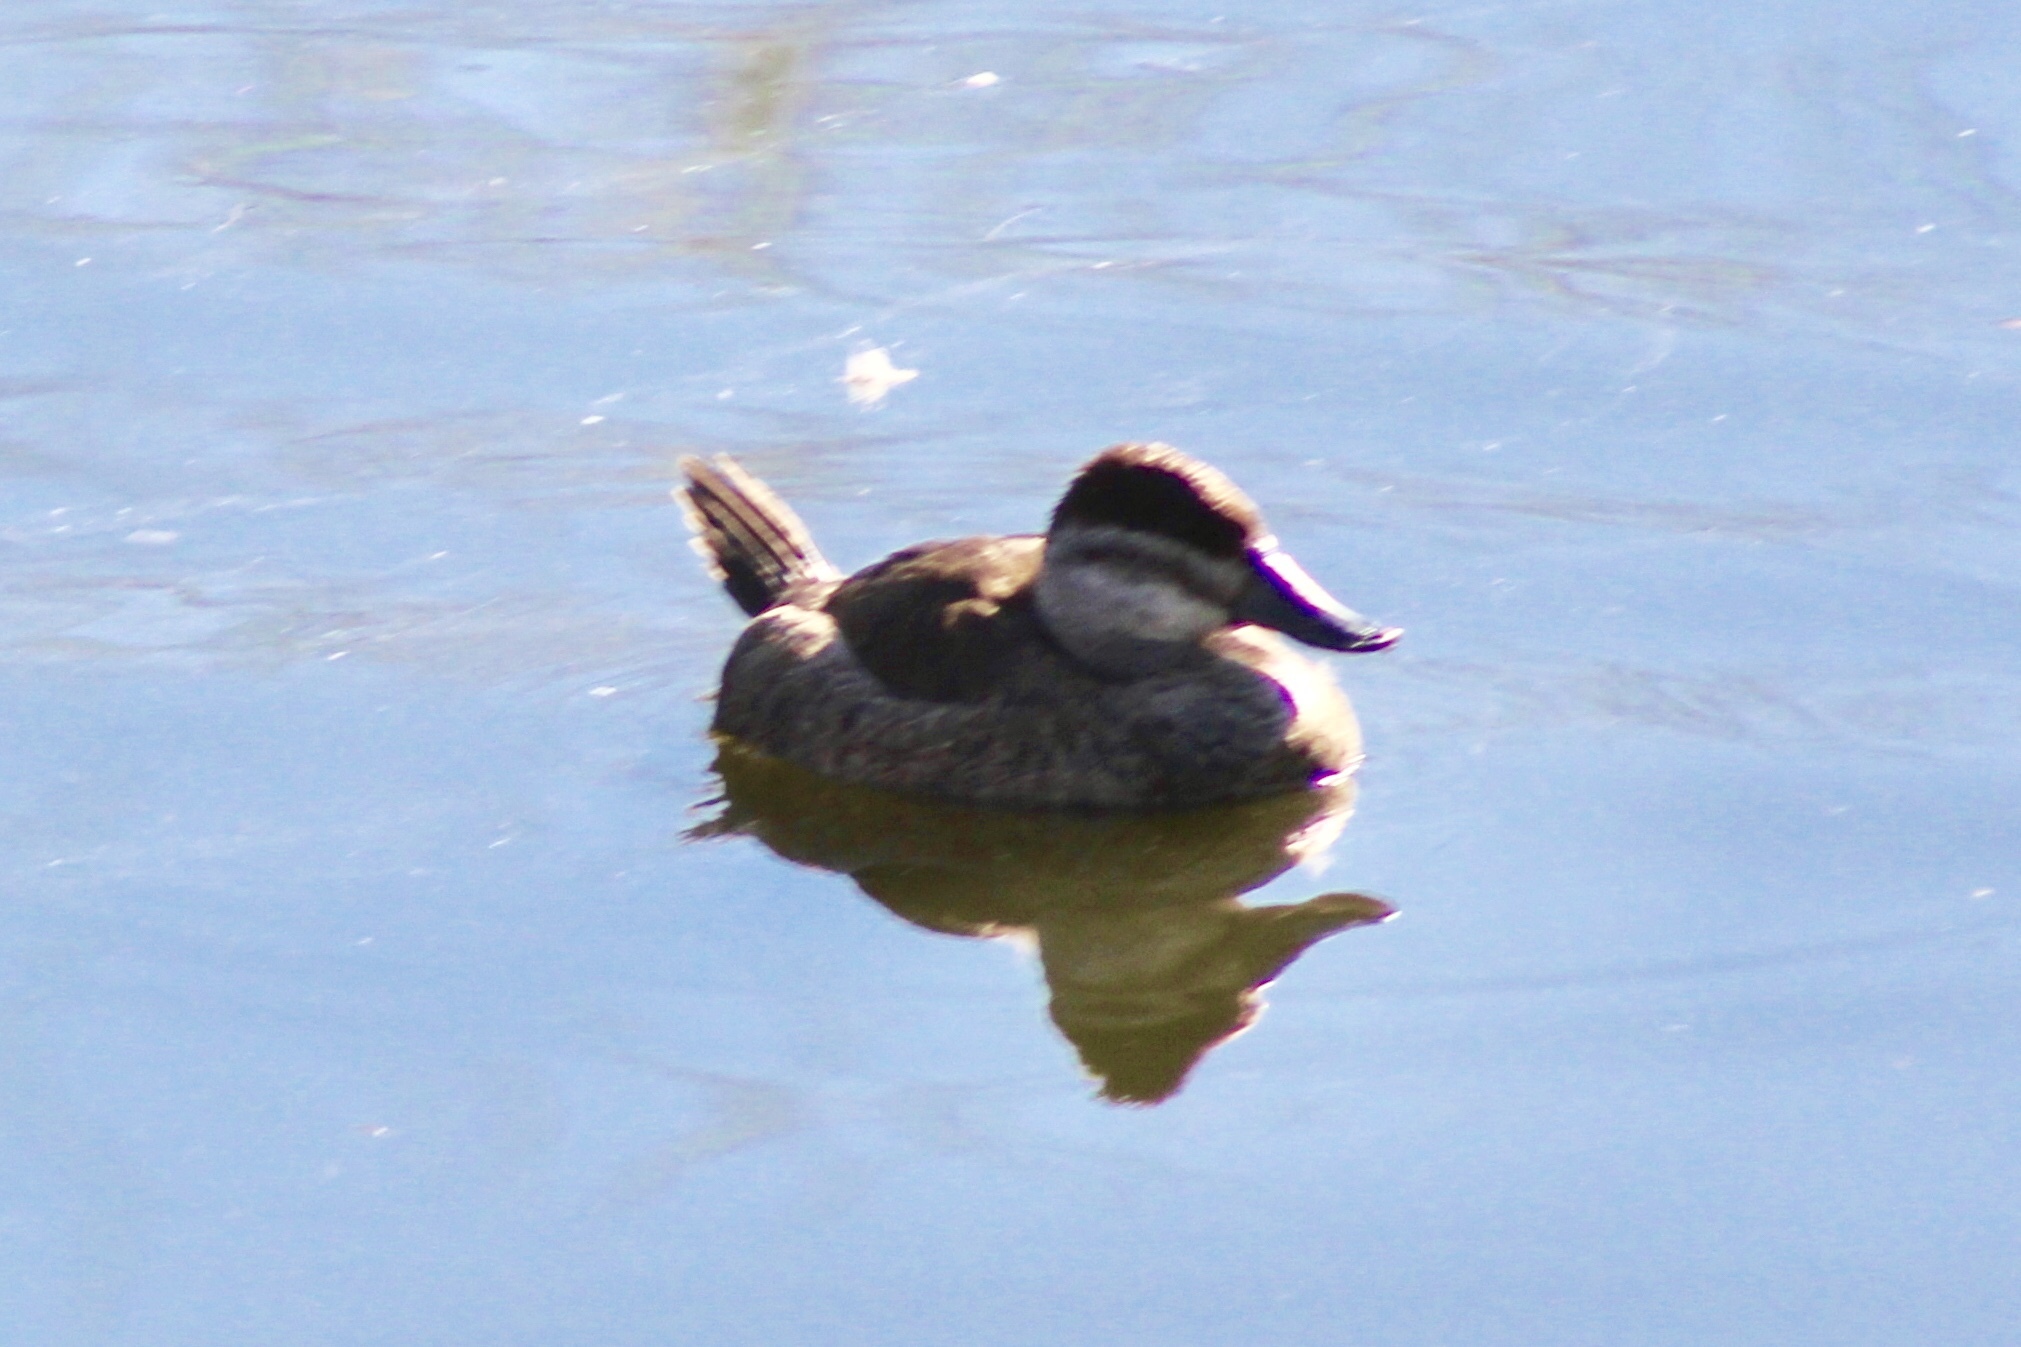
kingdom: Animalia
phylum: Chordata
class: Aves
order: Anseriformes
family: Anatidae
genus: Oxyura
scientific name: Oxyura jamaicensis
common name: Ruddy duck
